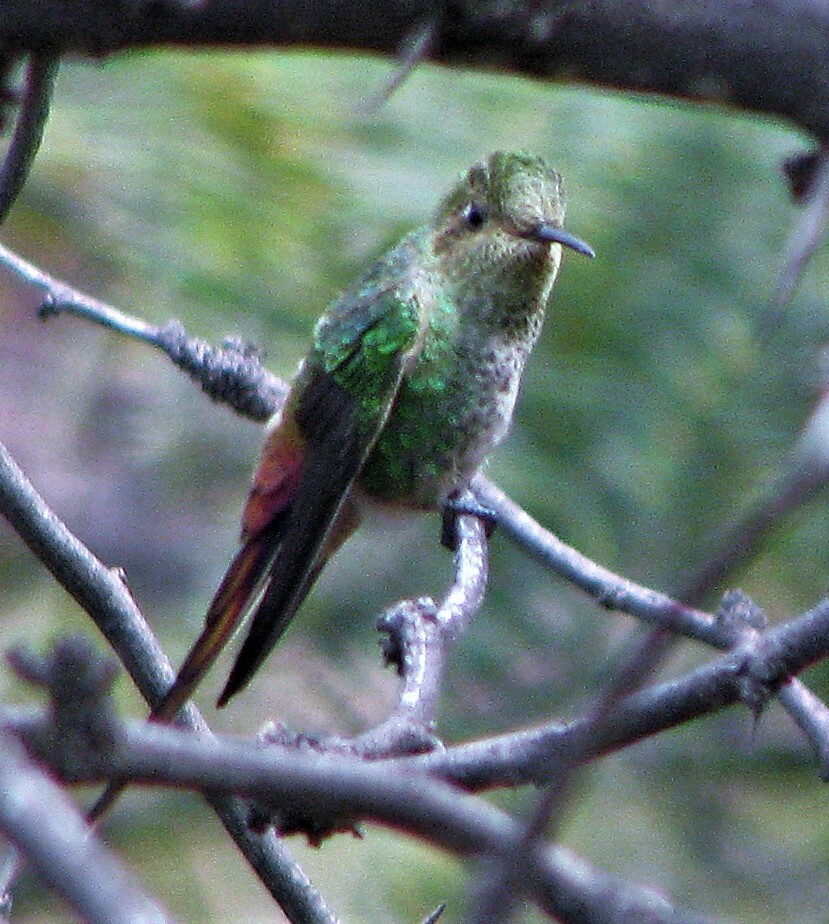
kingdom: Animalia
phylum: Chordata
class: Aves
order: Apodiformes
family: Trochilidae
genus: Sappho
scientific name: Sappho sparganurus
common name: Red-tailed comet
